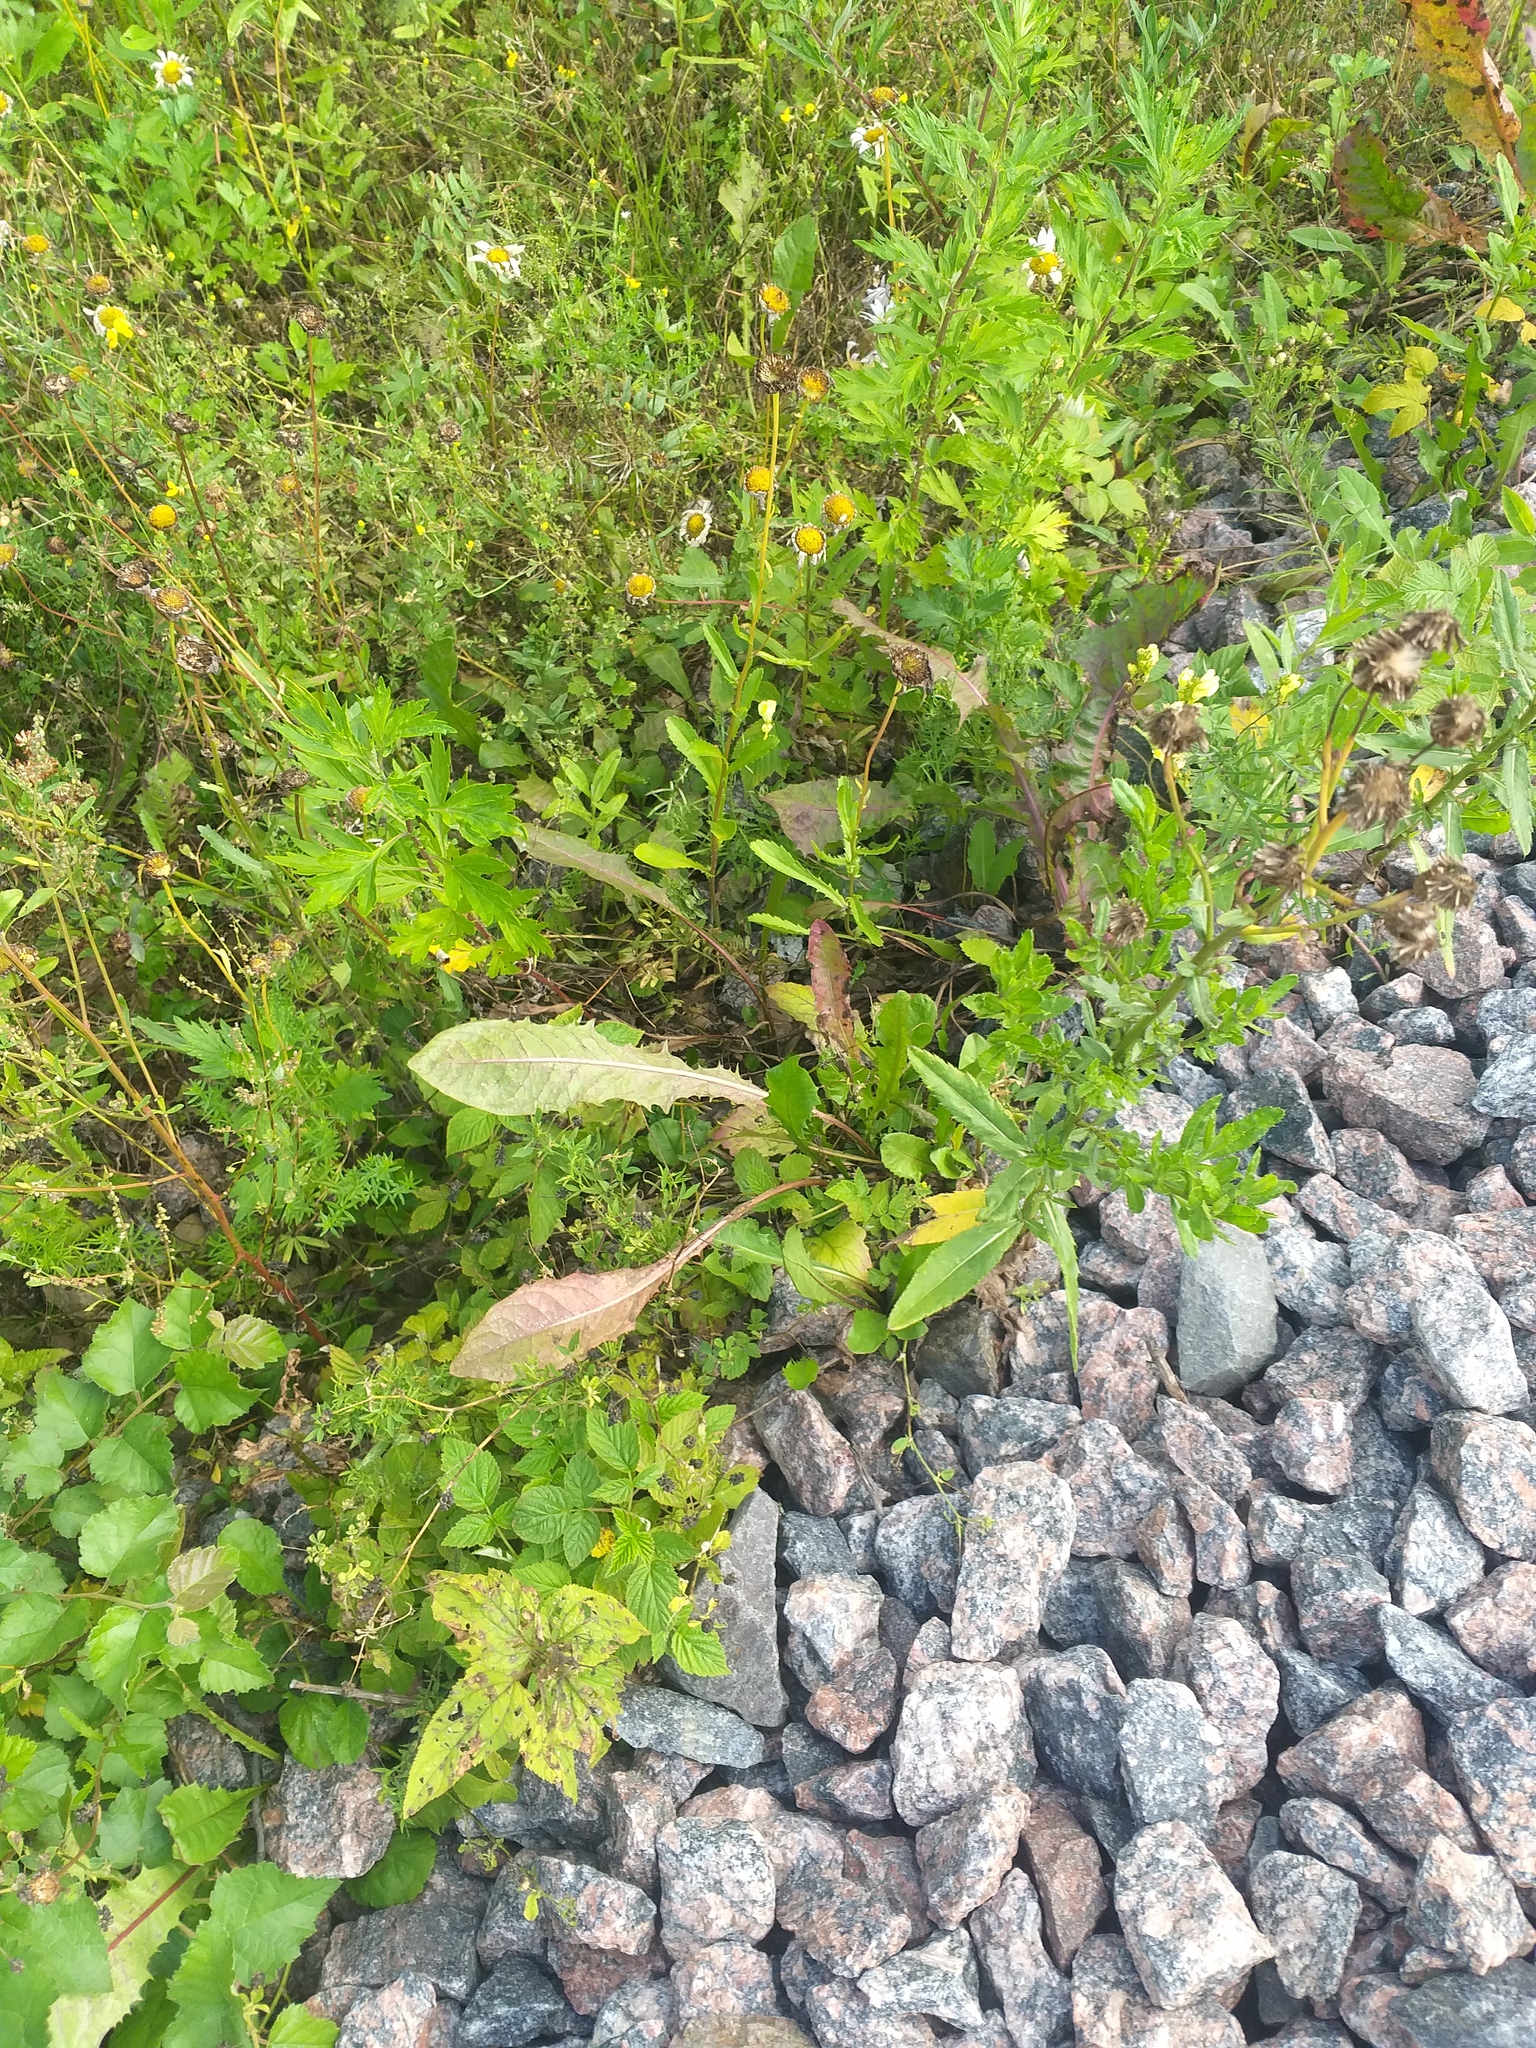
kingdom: Plantae
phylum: Tracheophyta
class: Magnoliopsida
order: Asterales
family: Asteraceae
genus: Taraxacum
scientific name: Taraxacum officinale
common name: Common dandelion
